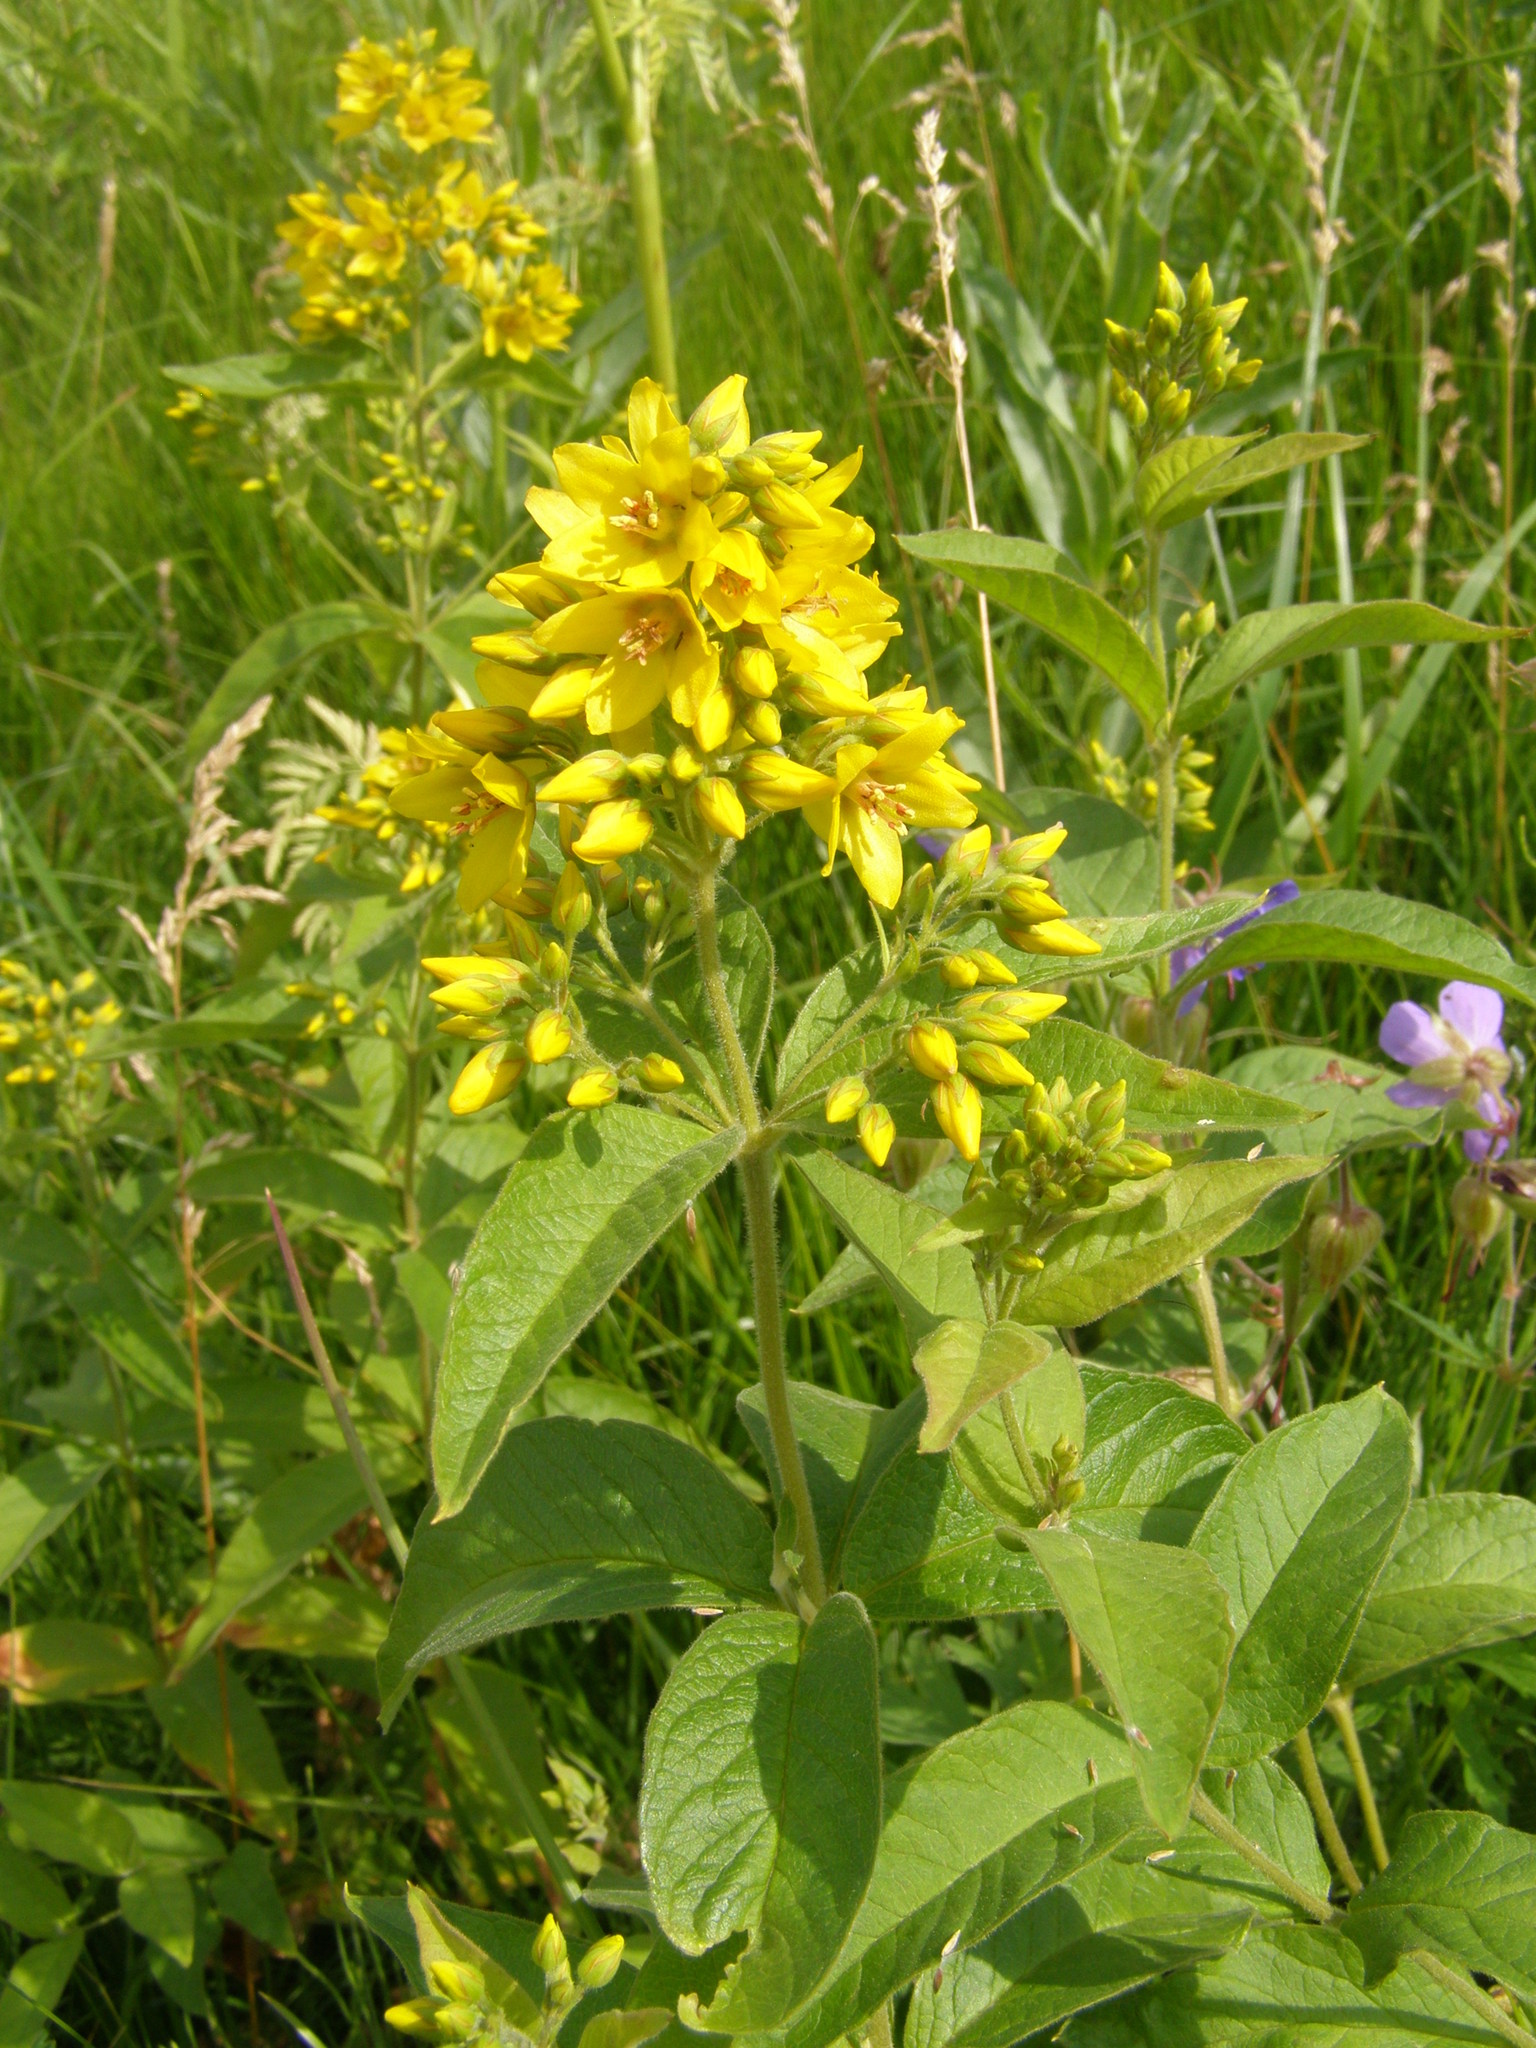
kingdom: Plantae
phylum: Tracheophyta
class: Magnoliopsida
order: Ericales
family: Primulaceae
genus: Lysimachia
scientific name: Lysimachia vulgaris
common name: Yellow loosestrife
